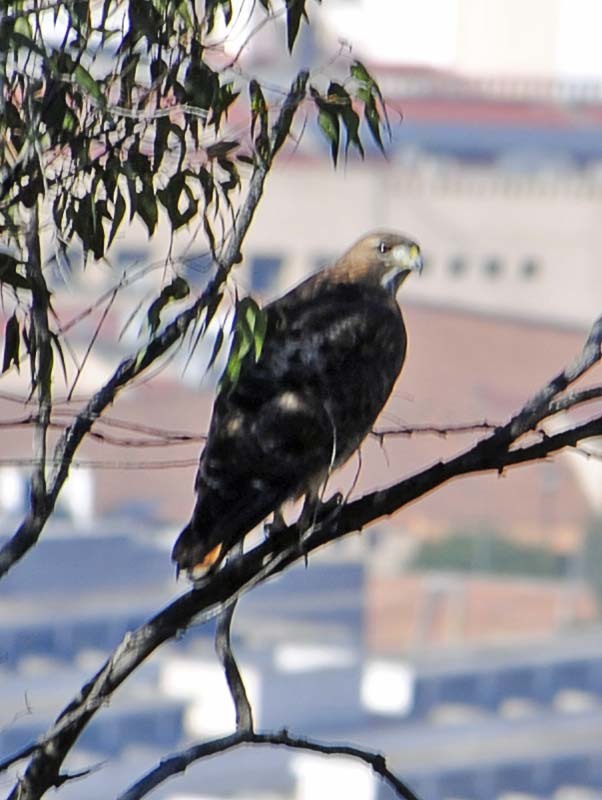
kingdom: Animalia
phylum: Chordata
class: Aves
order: Accipitriformes
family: Accipitridae
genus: Buteo
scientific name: Buteo jamaicensis
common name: Red-tailed hawk
